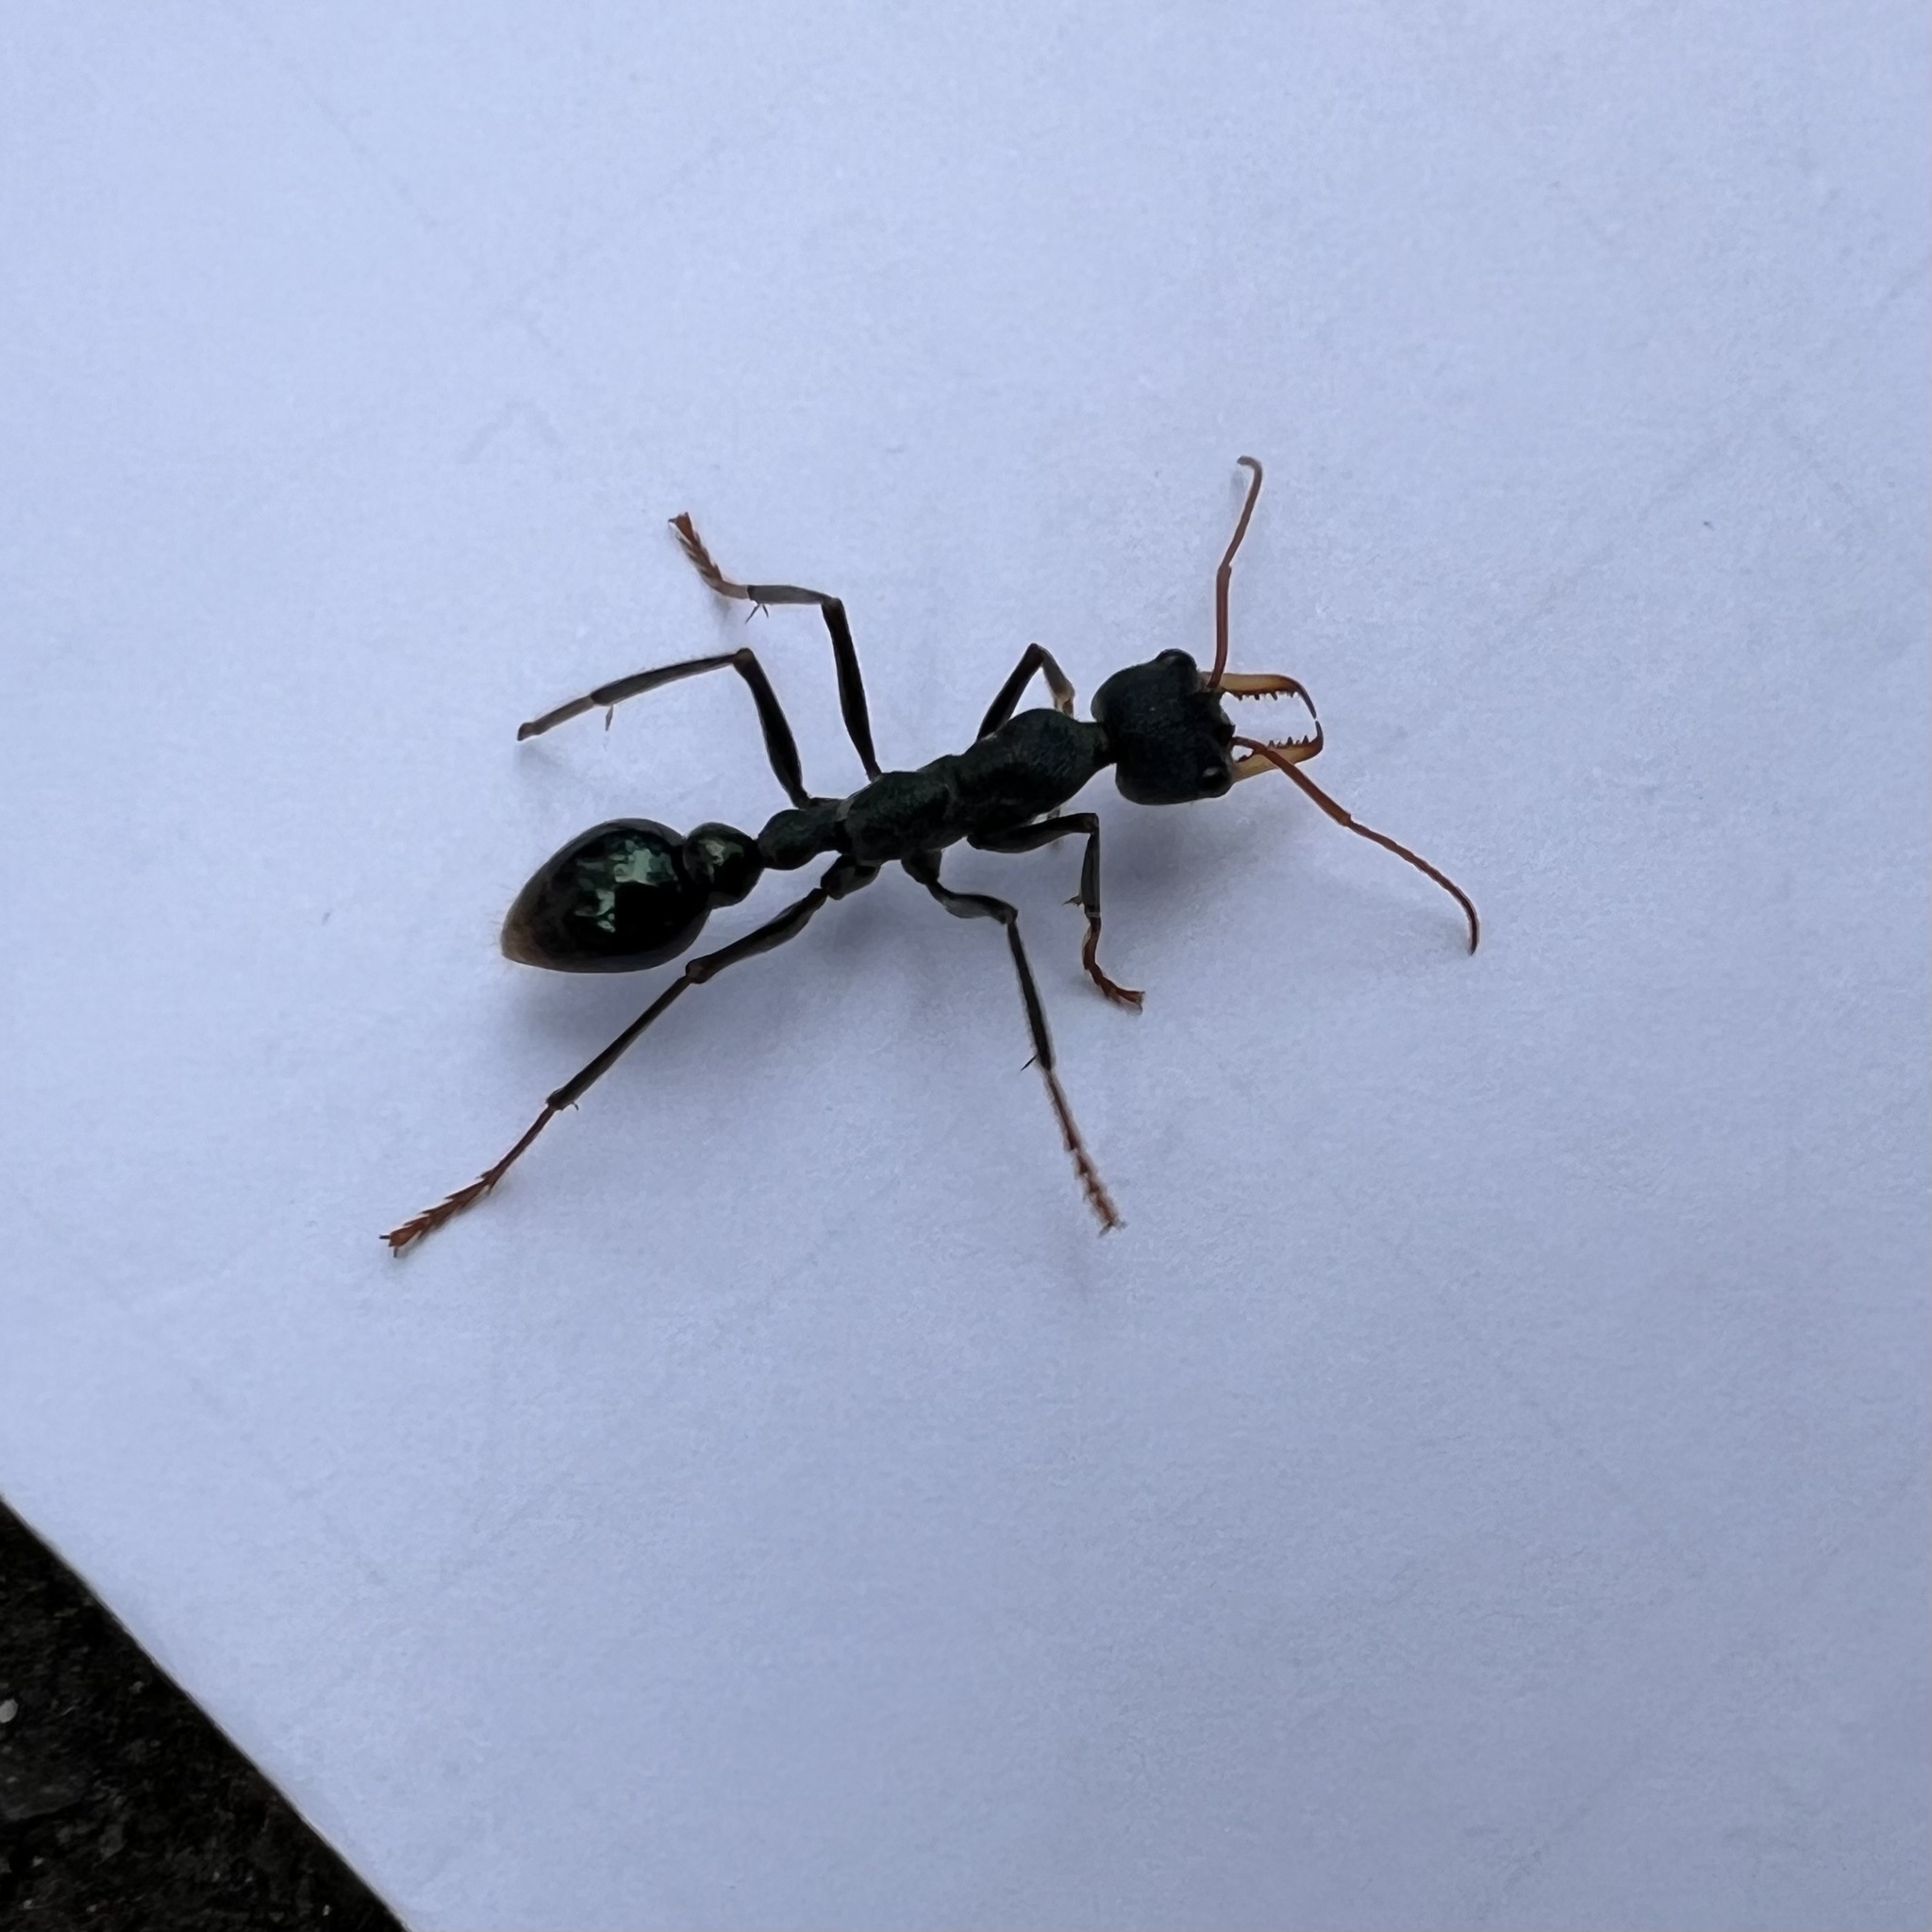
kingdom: Animalia
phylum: Arthropoda
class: Insecta
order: Hymenoptera
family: Formicidae
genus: Myrmecia
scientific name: Myrmecia tarsata
